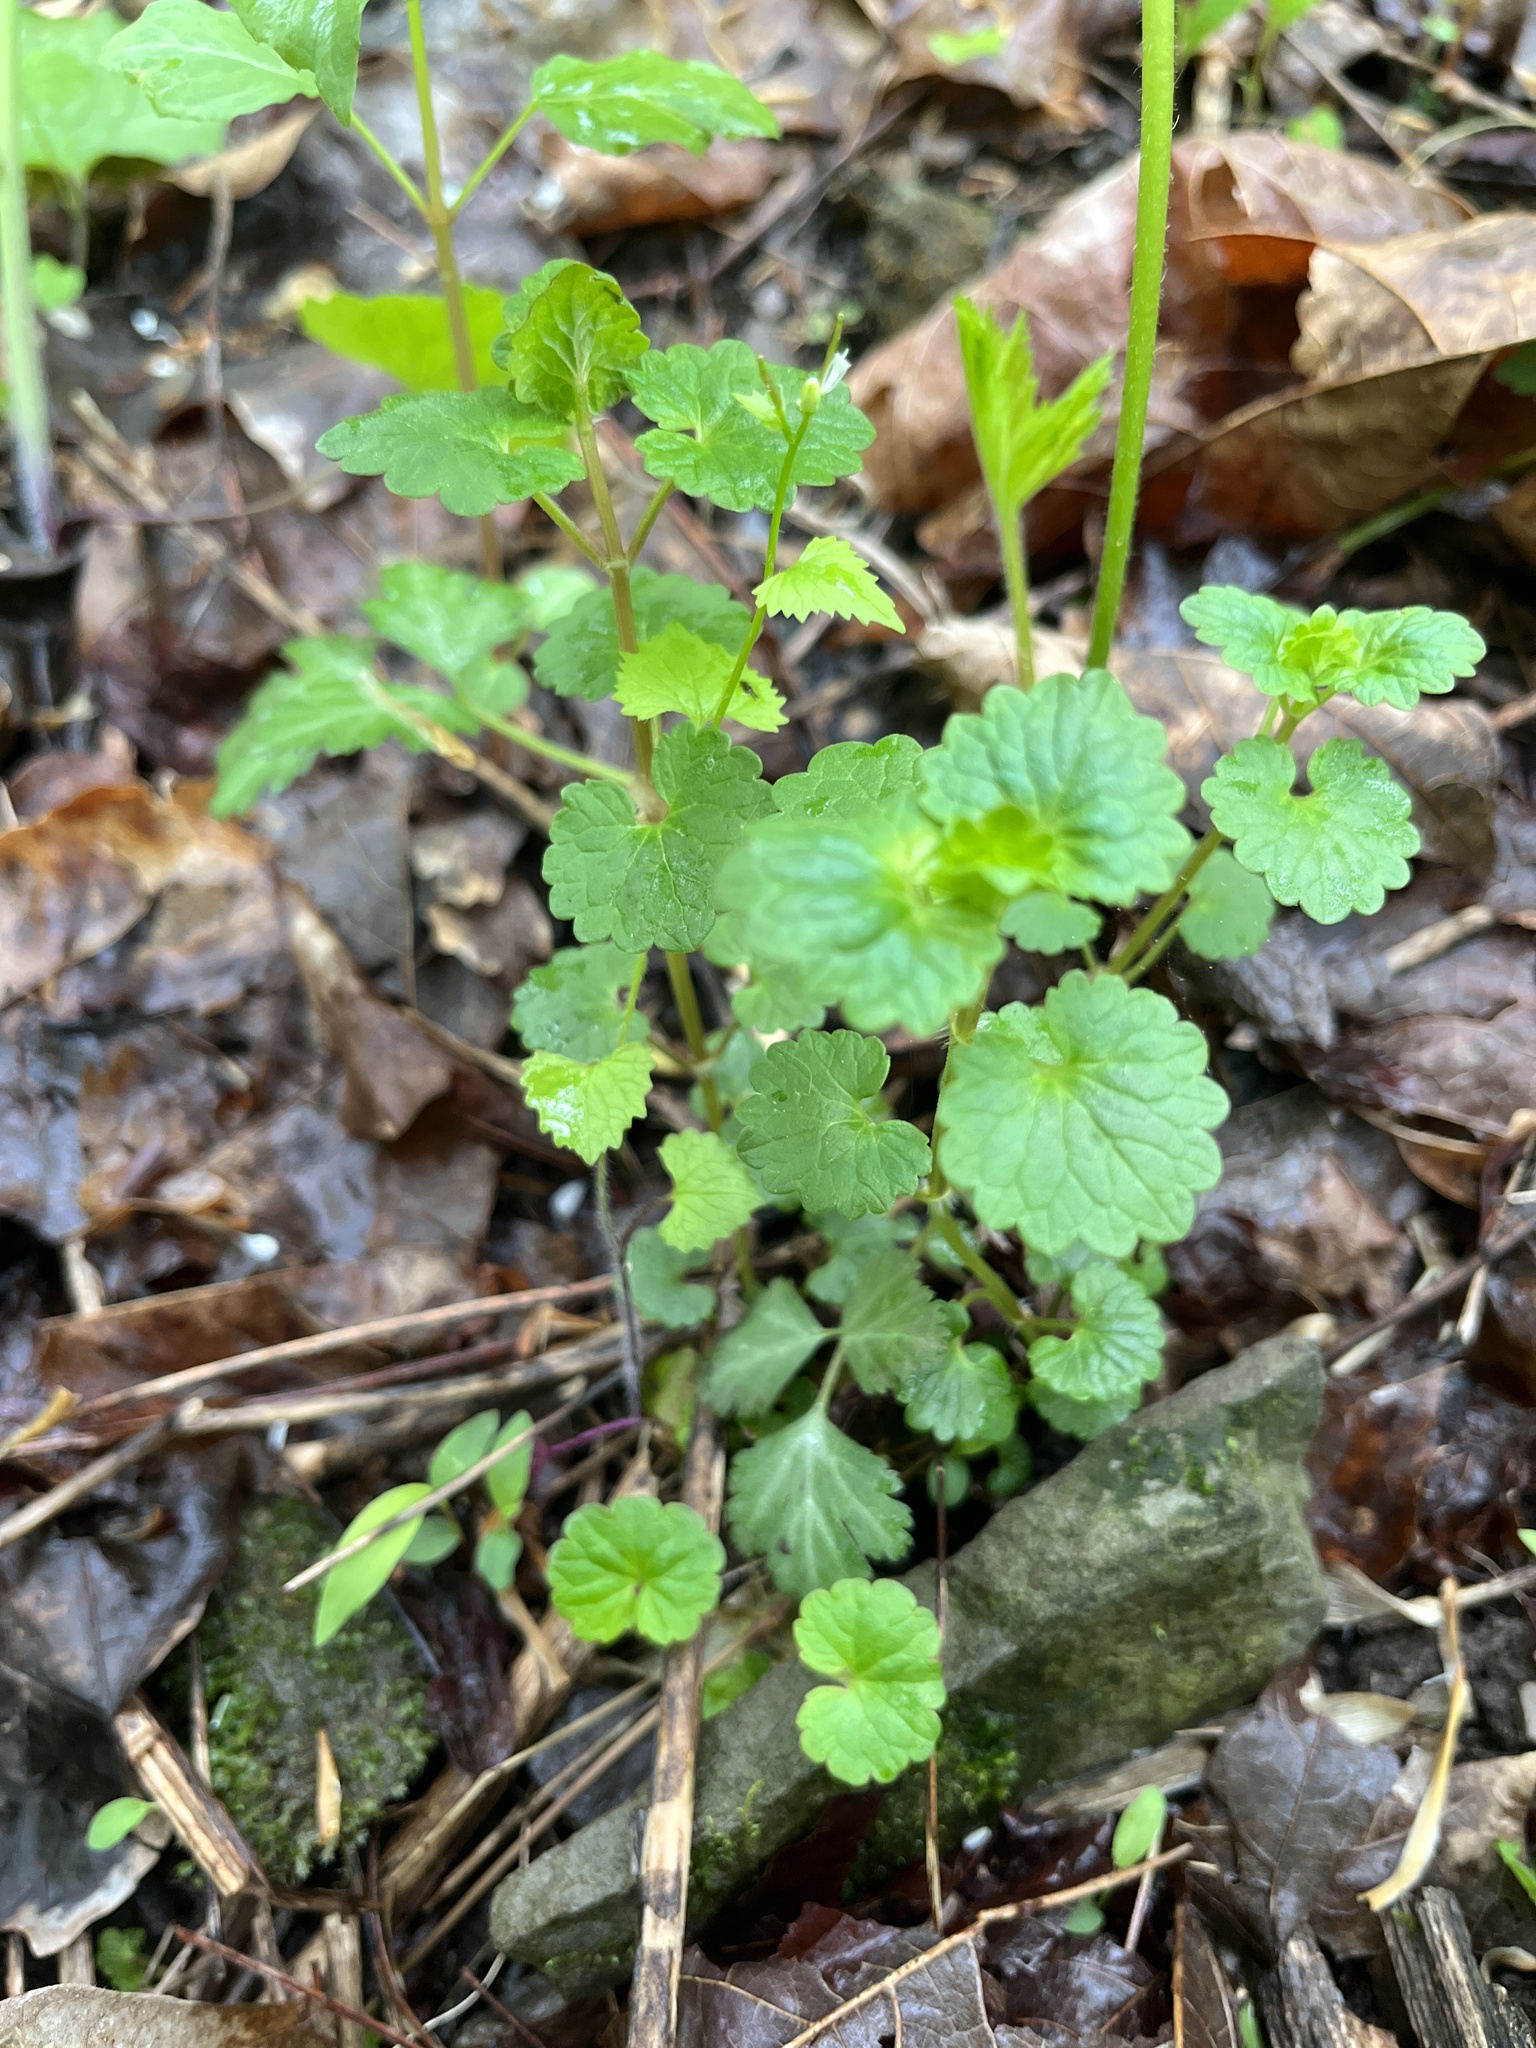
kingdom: Plantae
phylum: Tracheophyta
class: Magnoliopsida
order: Lamiales
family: Lamiaceae
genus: Glechoma
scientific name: Glechoma hederacea
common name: Ground ivy
